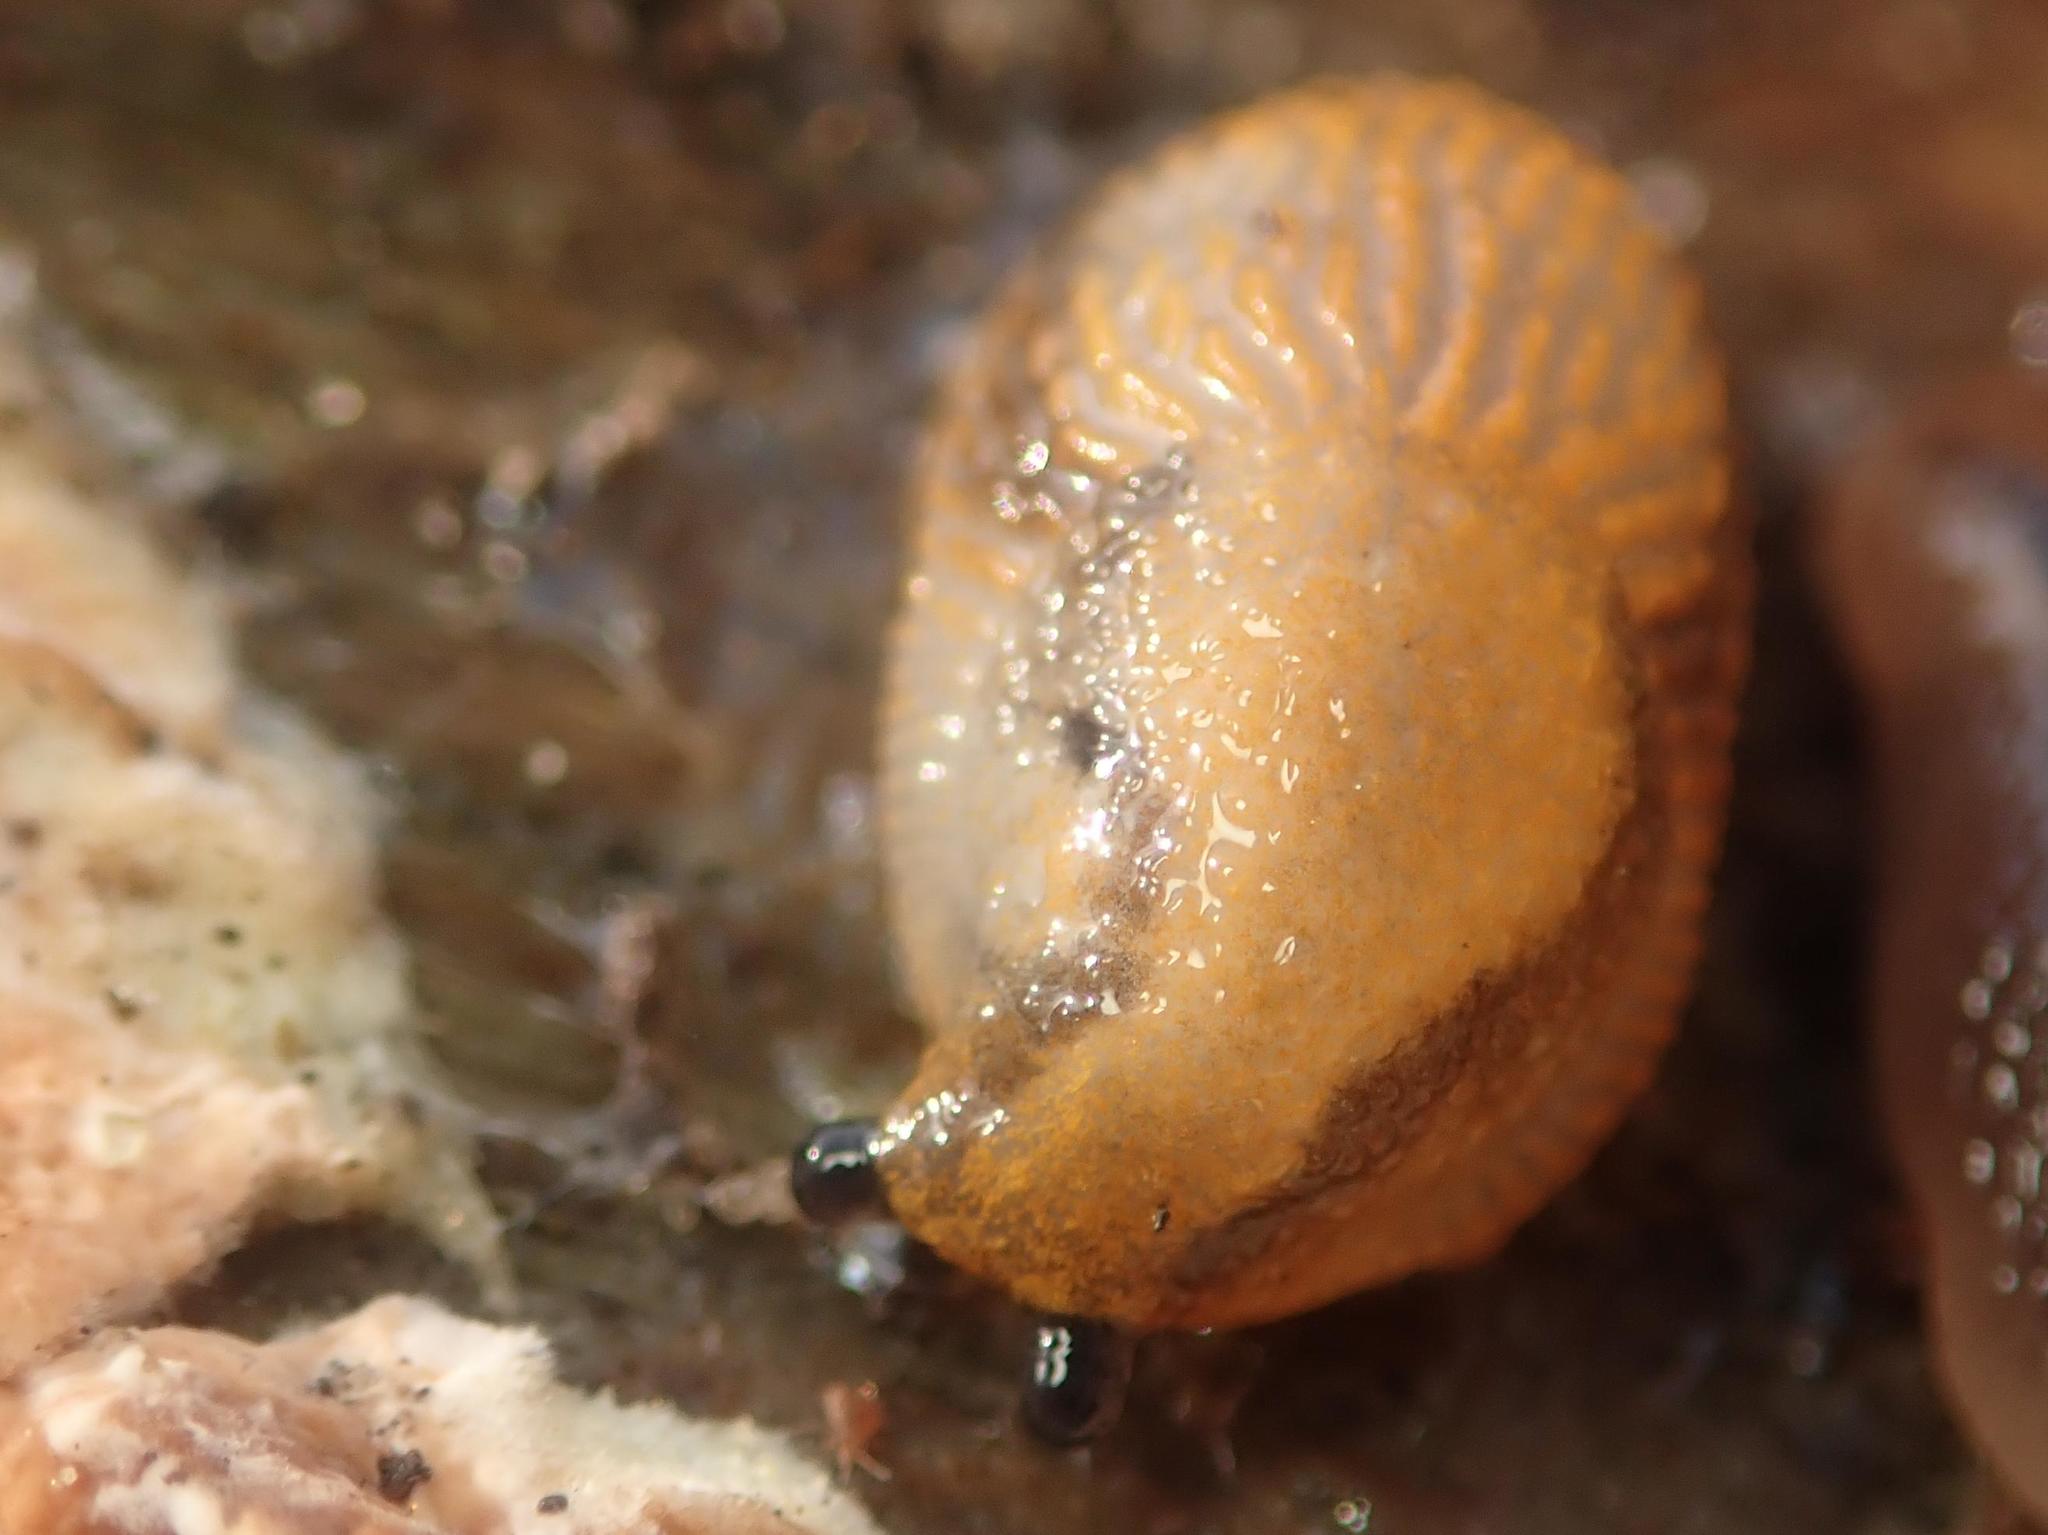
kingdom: Animalia
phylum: Mollusca
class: Gastropoda
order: Stylommatophora
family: Arionidae
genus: Arion
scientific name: Arion vulgaris
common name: Lusitanian slug
